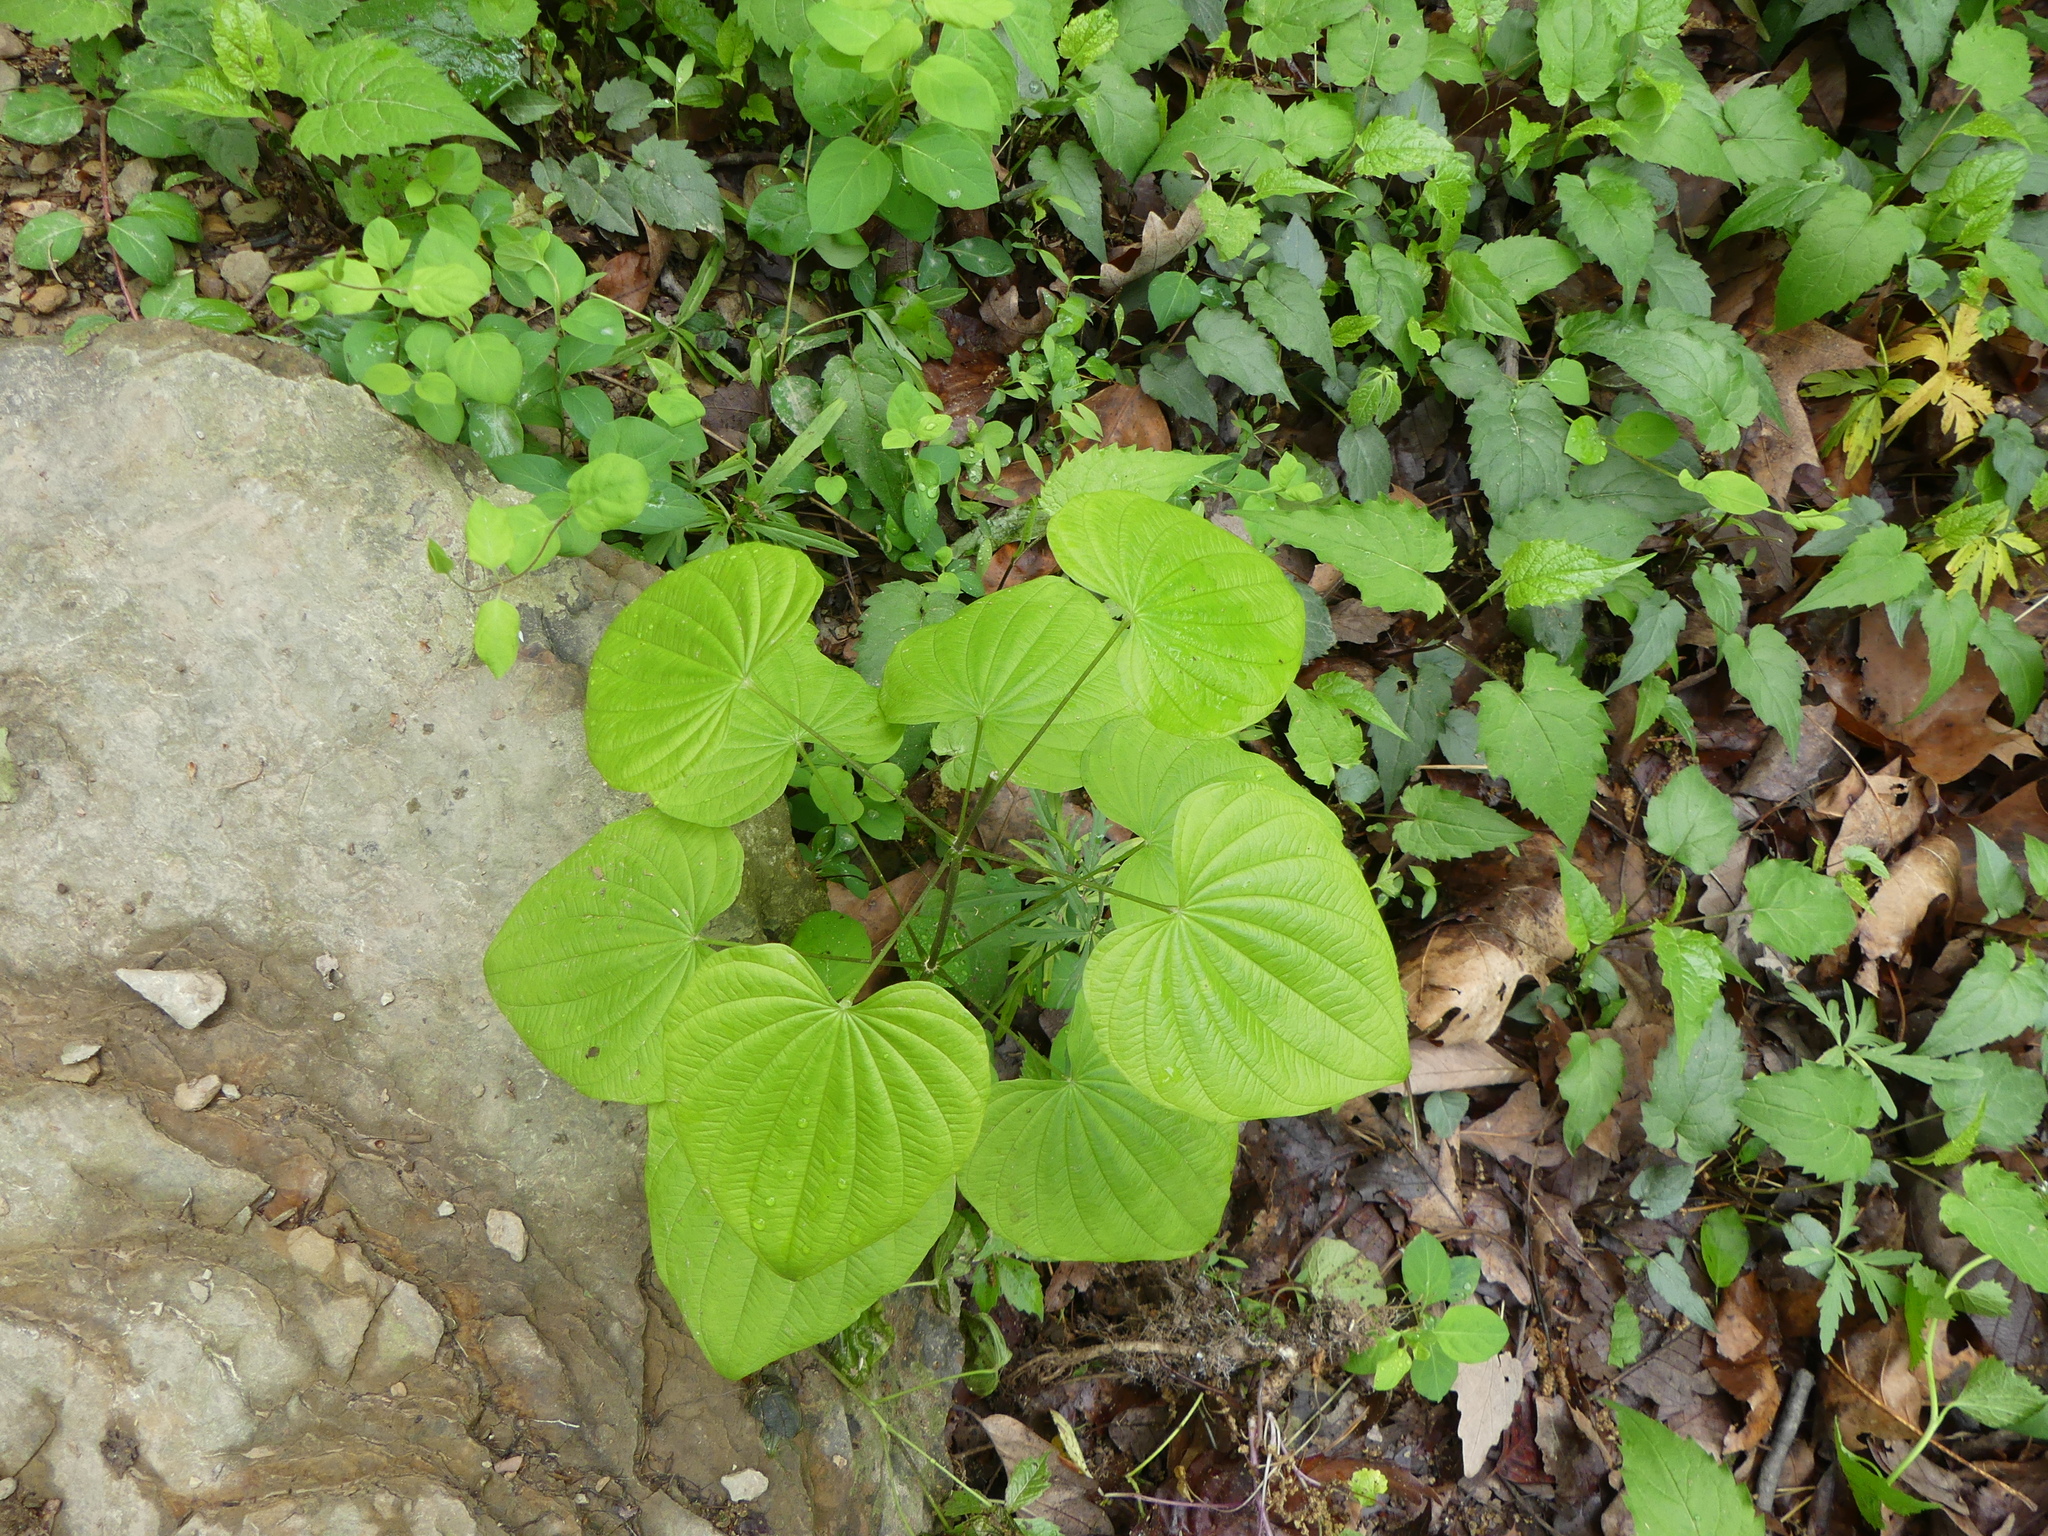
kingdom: Plantae
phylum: Tracheophyta
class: Liliopsida
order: Dioscoreales
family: Dioscoreaceae
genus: Dioscorea
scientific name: Dioscorea villosa
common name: Wild yam
